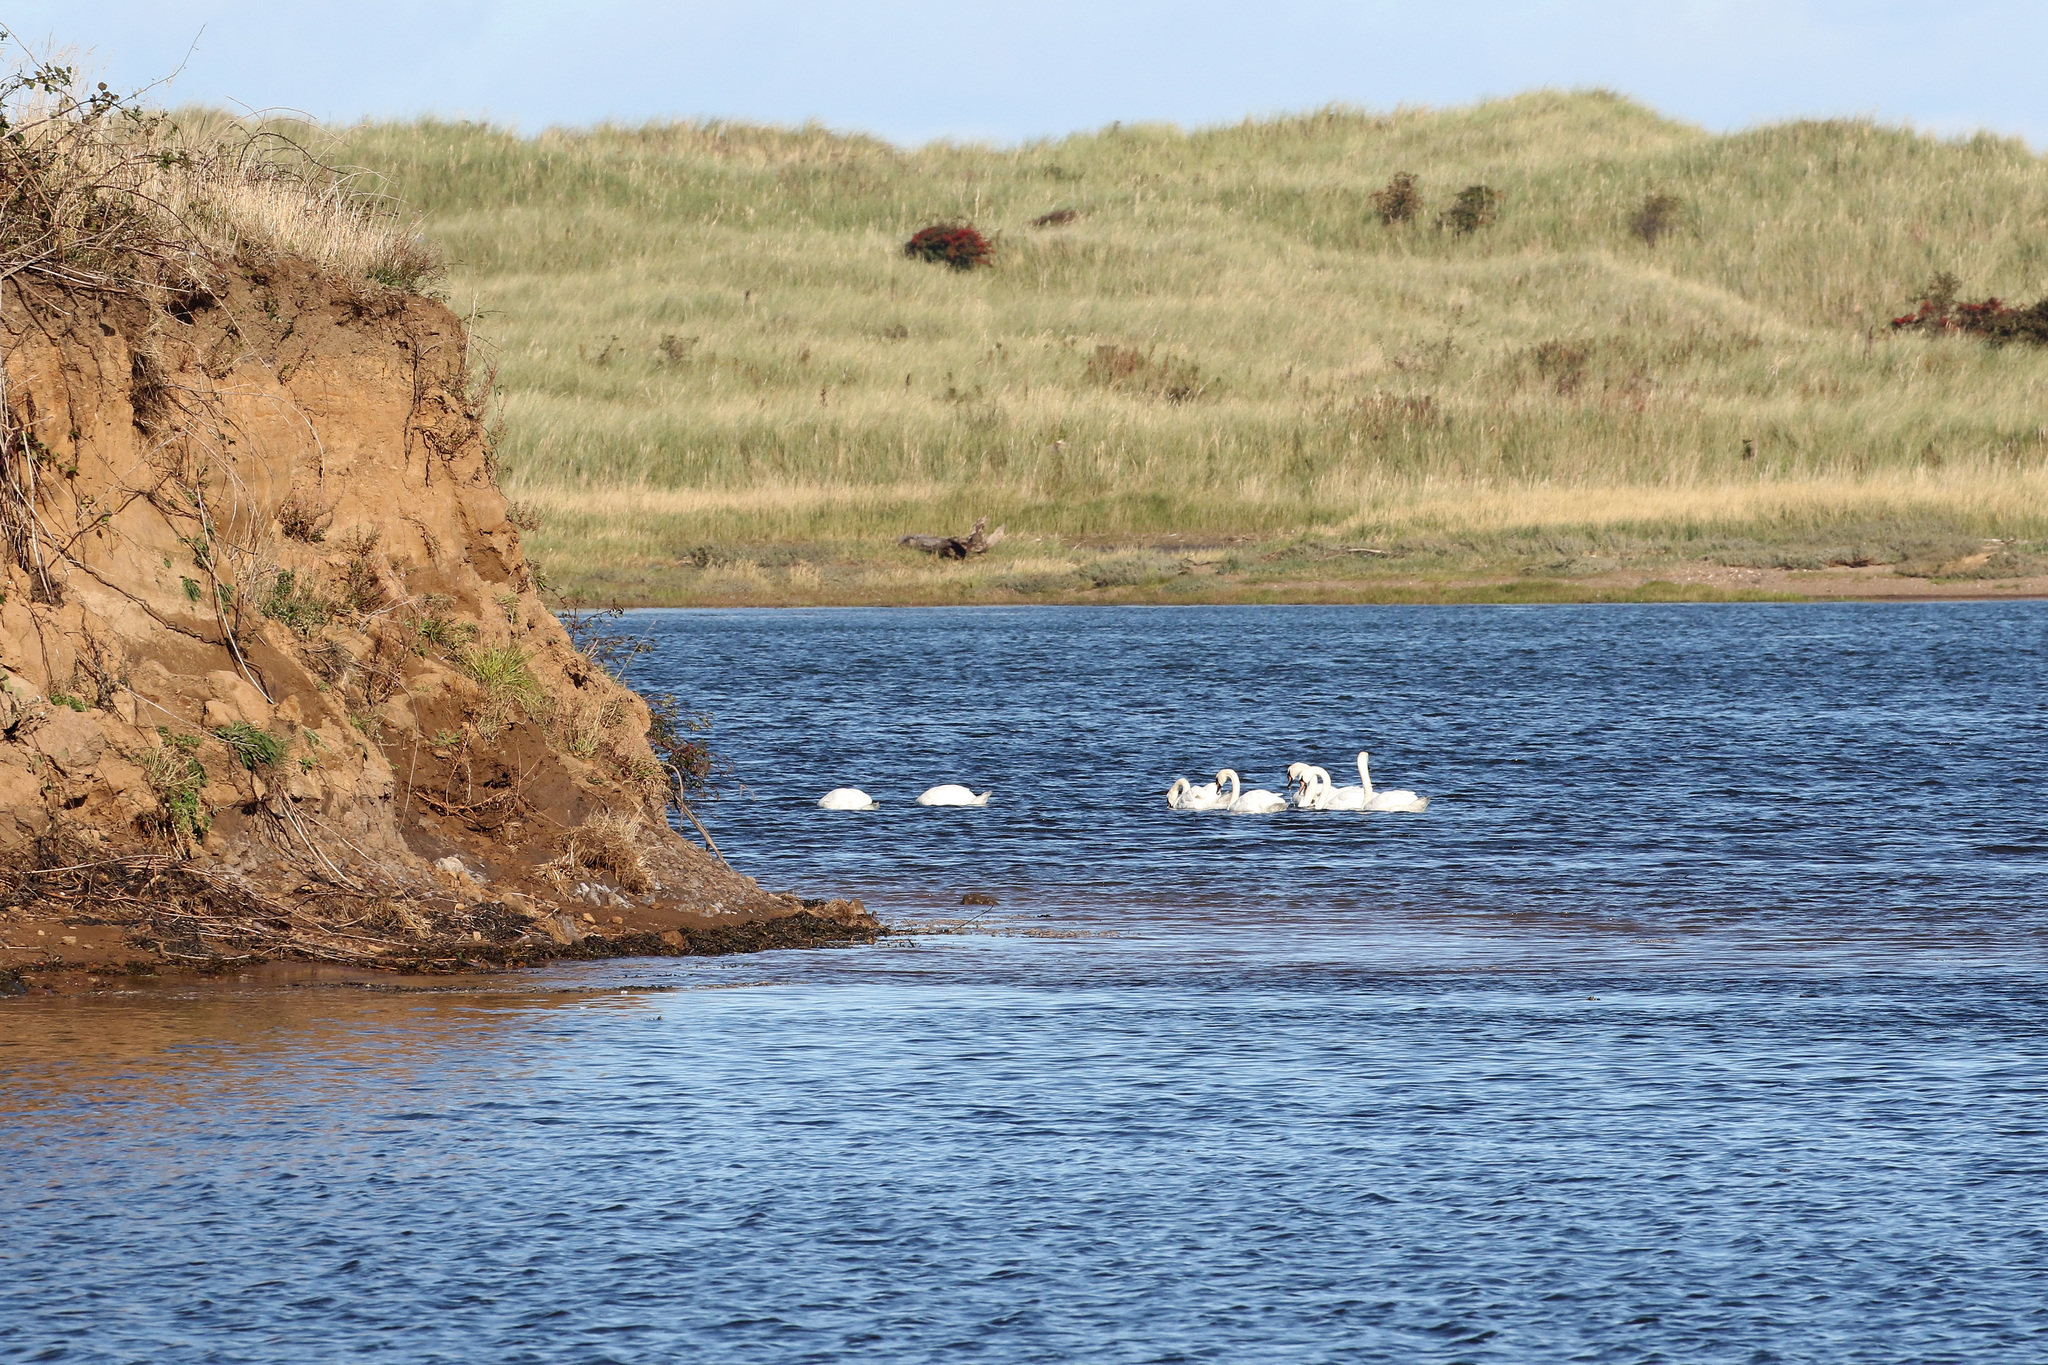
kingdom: Animalia
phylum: Chordata
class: Aves
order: Anseriformes
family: Anatidae
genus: Cygnus
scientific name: Cygnus olor
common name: Mute swan
